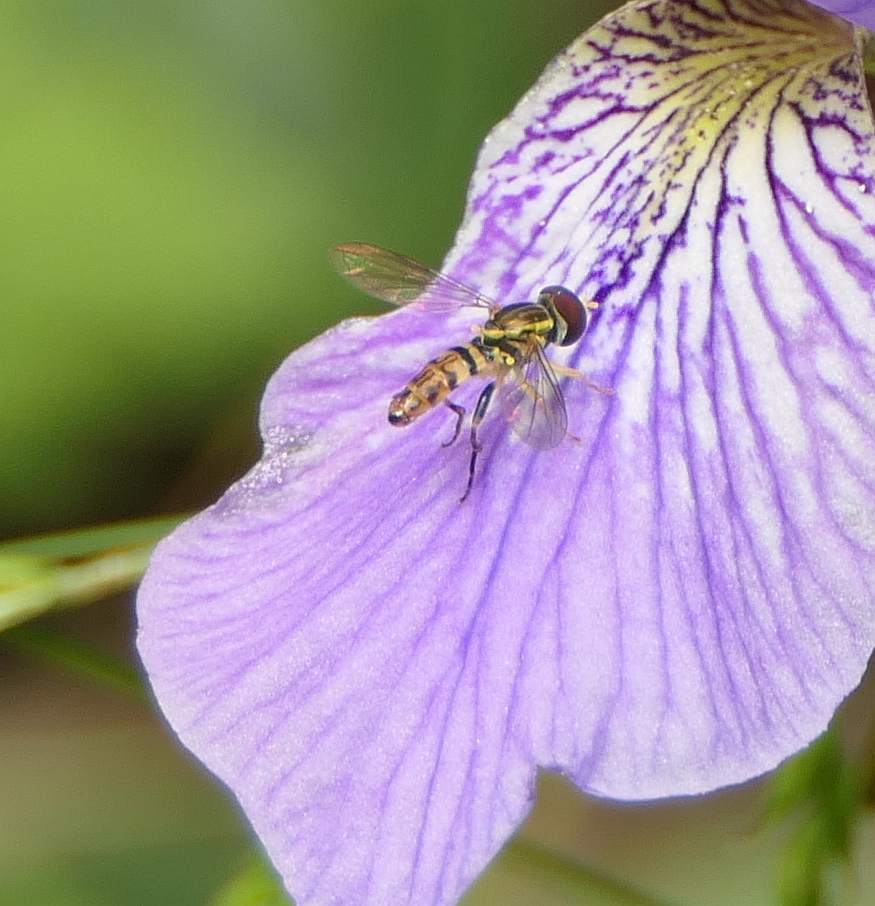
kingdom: Animalia
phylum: Arthropoda
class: Insecta
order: Diptera
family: Syrphidae
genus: Toxomerus
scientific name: Toxomerus geminatus
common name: Eastern calligrapher
